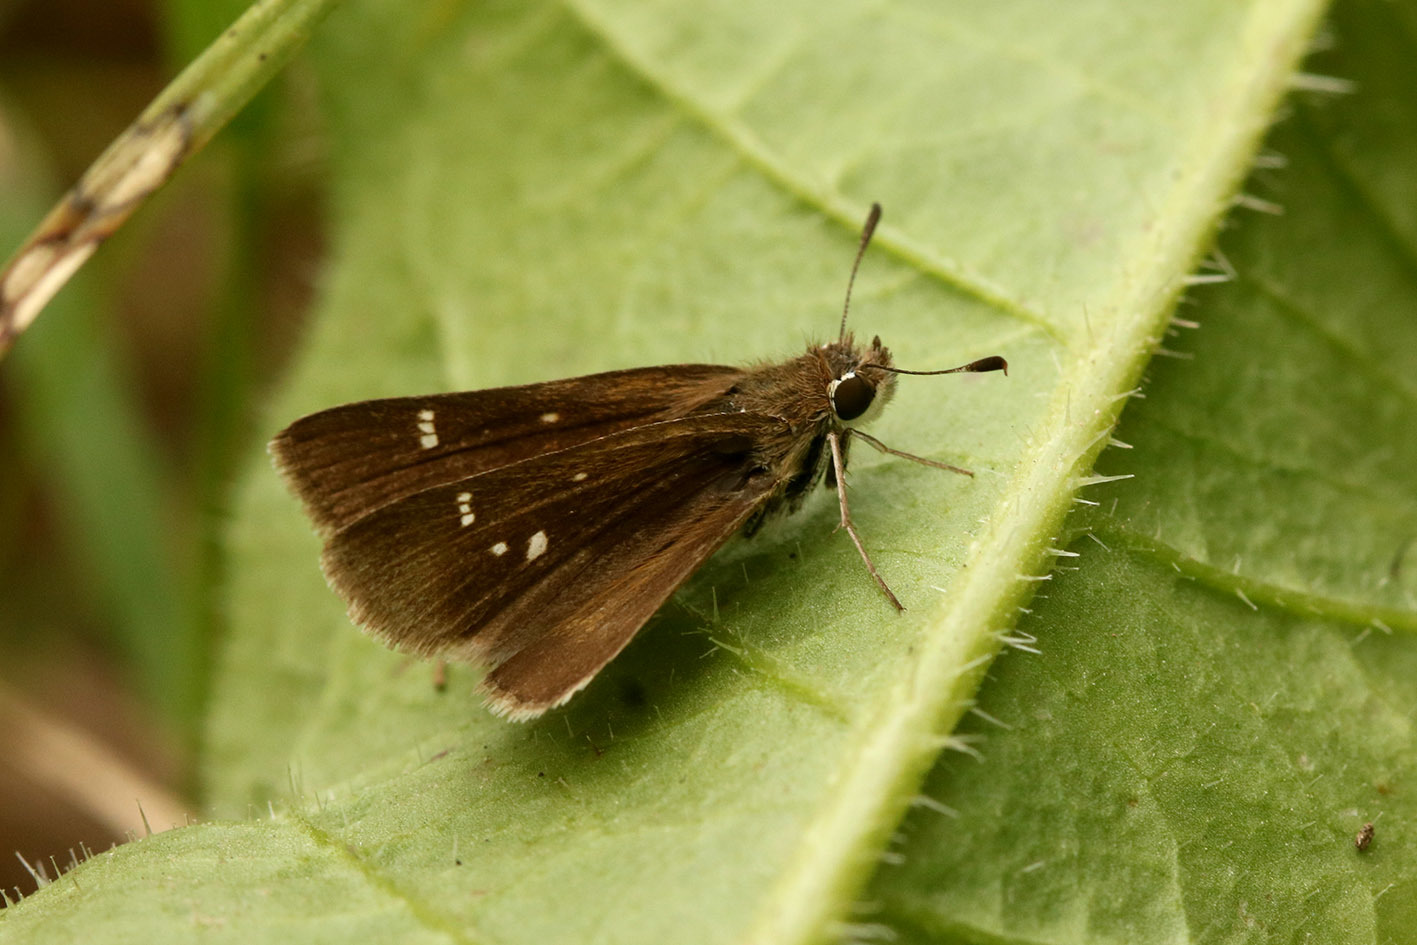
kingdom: Animalia
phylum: Arthropoda
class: Insecta
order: Lepidoptera
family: Hesperiidae
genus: Lerodea
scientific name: Lerodea eufala
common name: Eufala skipper
